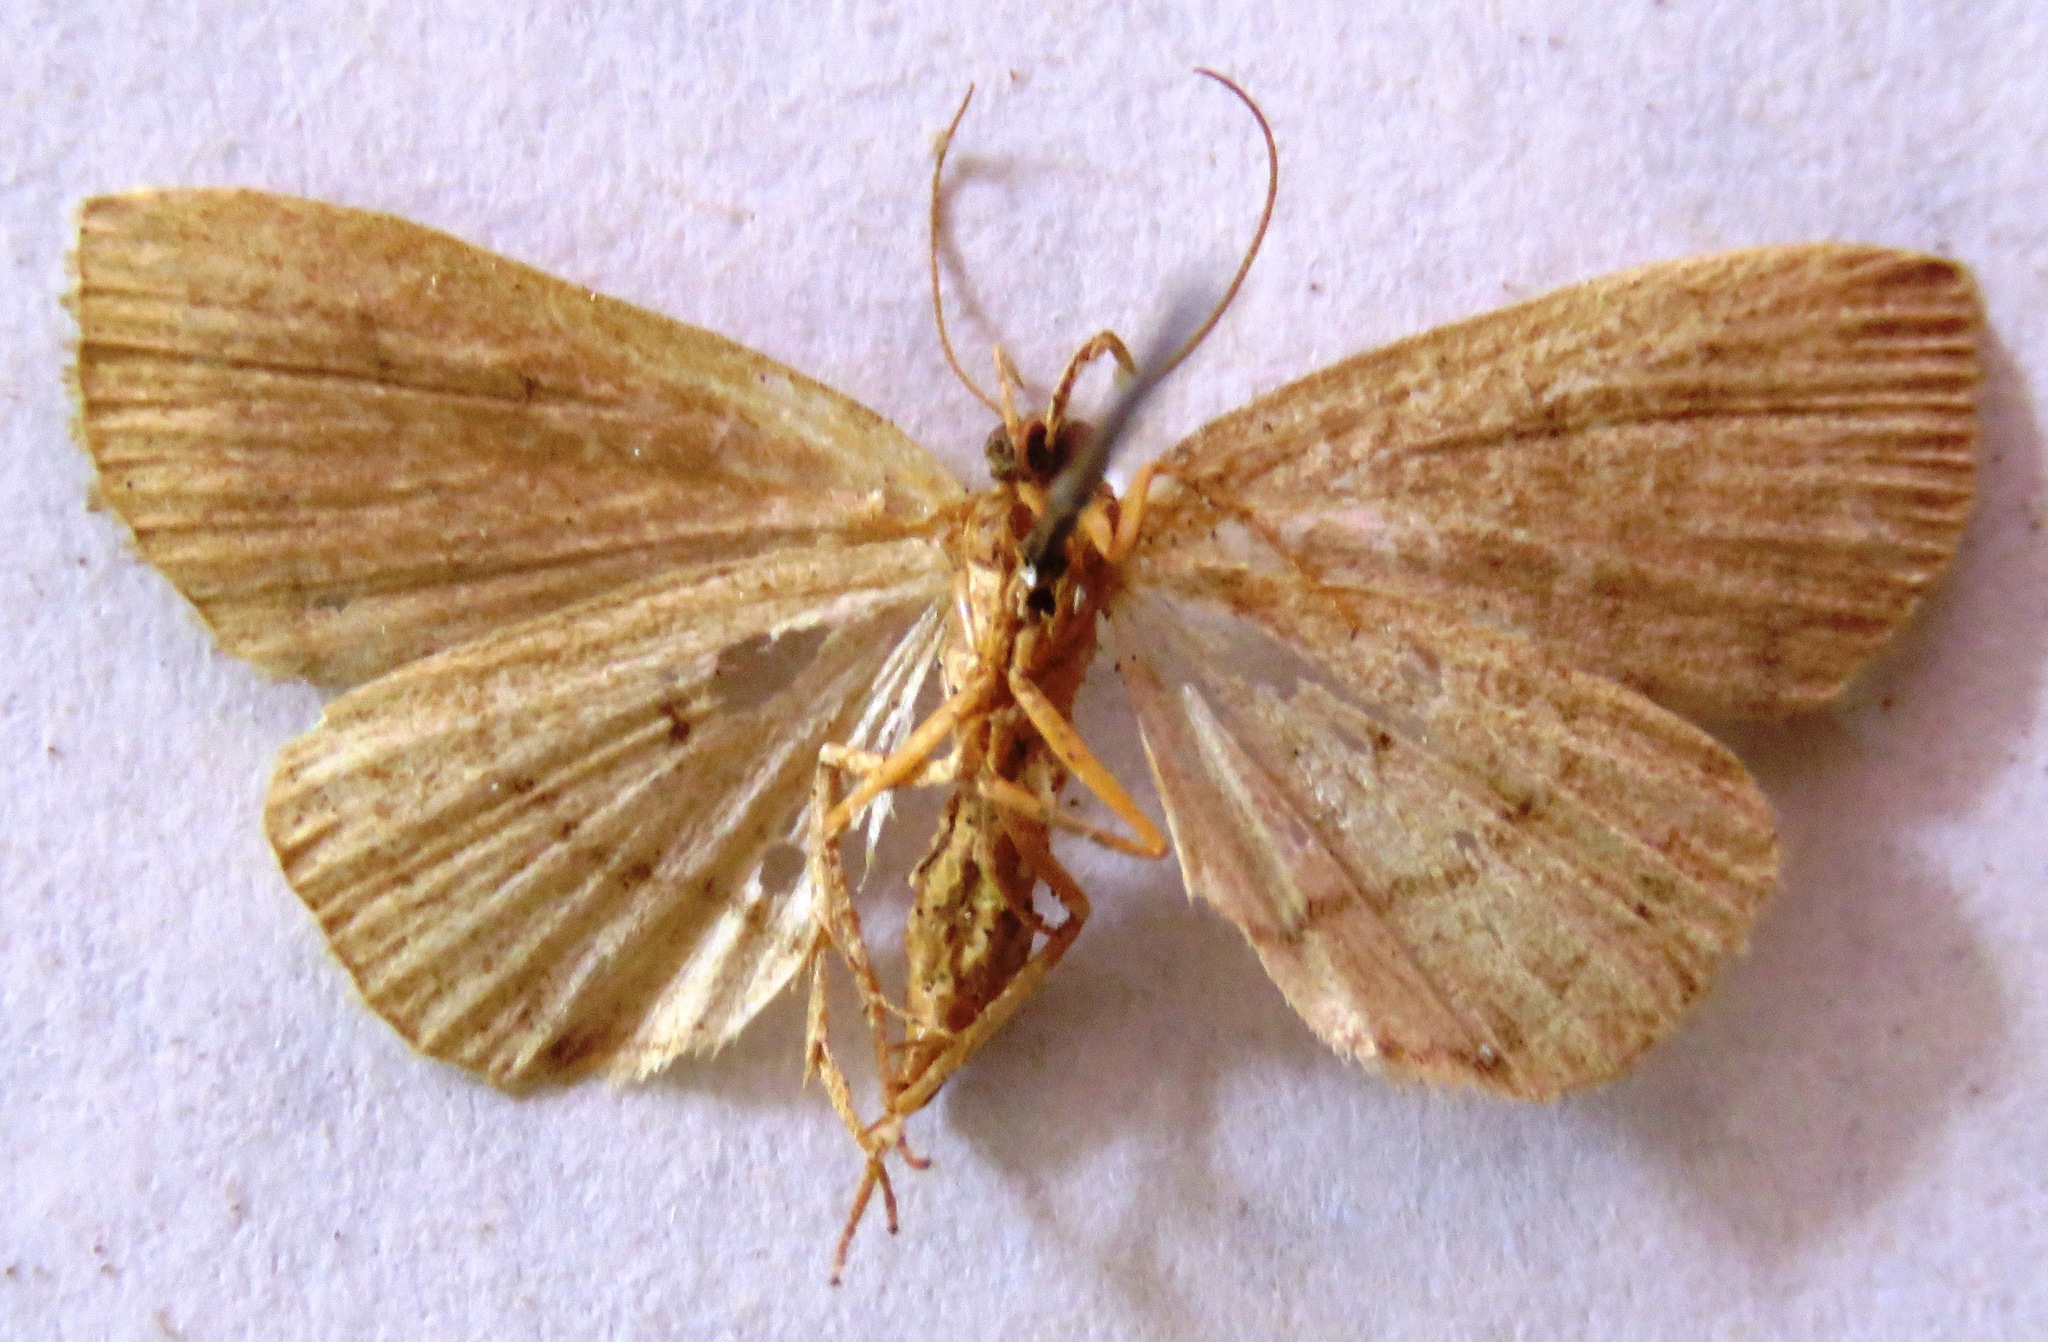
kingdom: Animalia
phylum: Arthropoda
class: Insecta
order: Lepidoptera
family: Erebidae
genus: Herminia
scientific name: Herminia grisealis
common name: Small fan-foot
